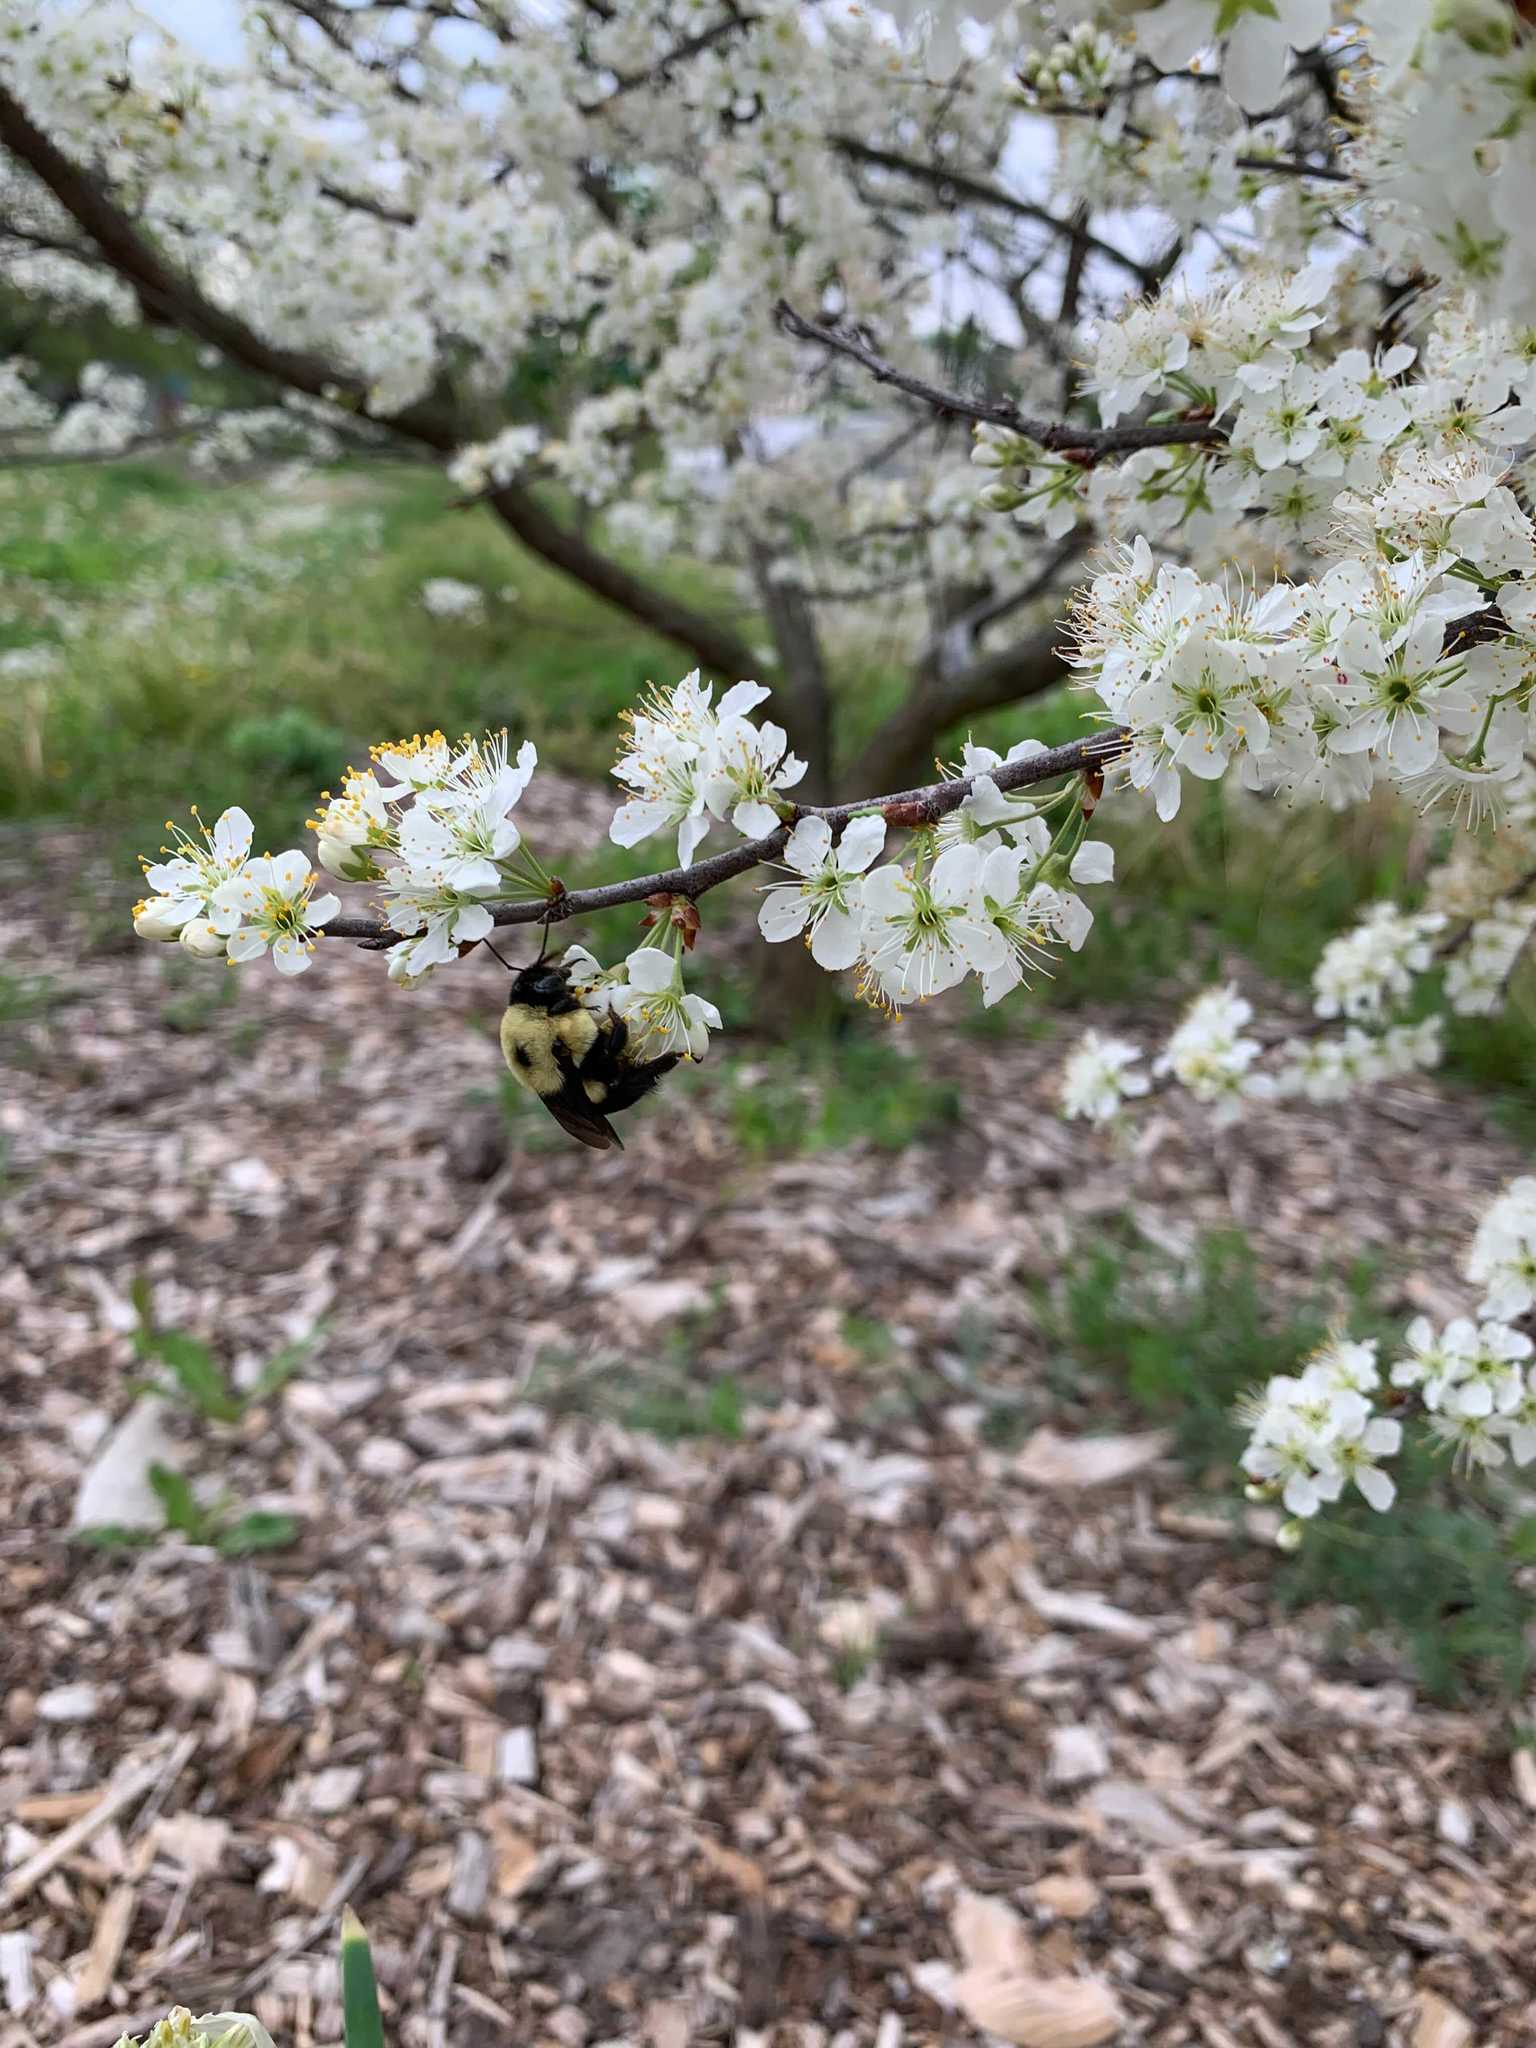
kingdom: Animalia
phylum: Arthropoda
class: Insecta
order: Hymenoptera
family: Apidae
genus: Bombus
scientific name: Bombus griseocollis
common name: Brown-belted bumble bee
